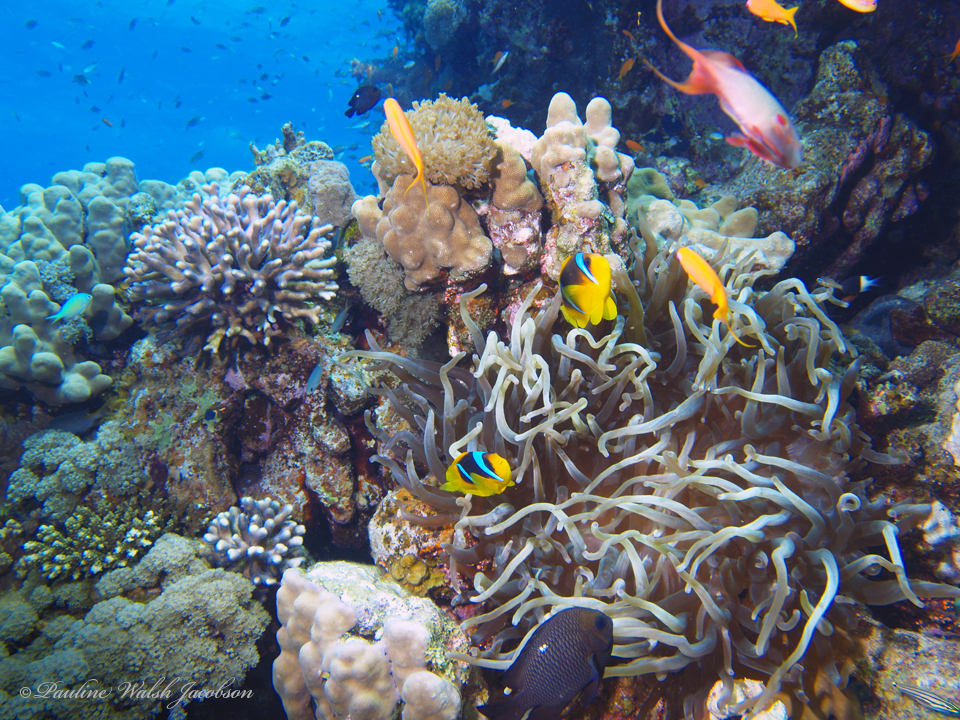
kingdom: Animalia
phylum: Chordata
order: Perciformes
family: Pomacentridae
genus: Dascyllus
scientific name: Dascyllus trimaculatus
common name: Threespot dascyllus
